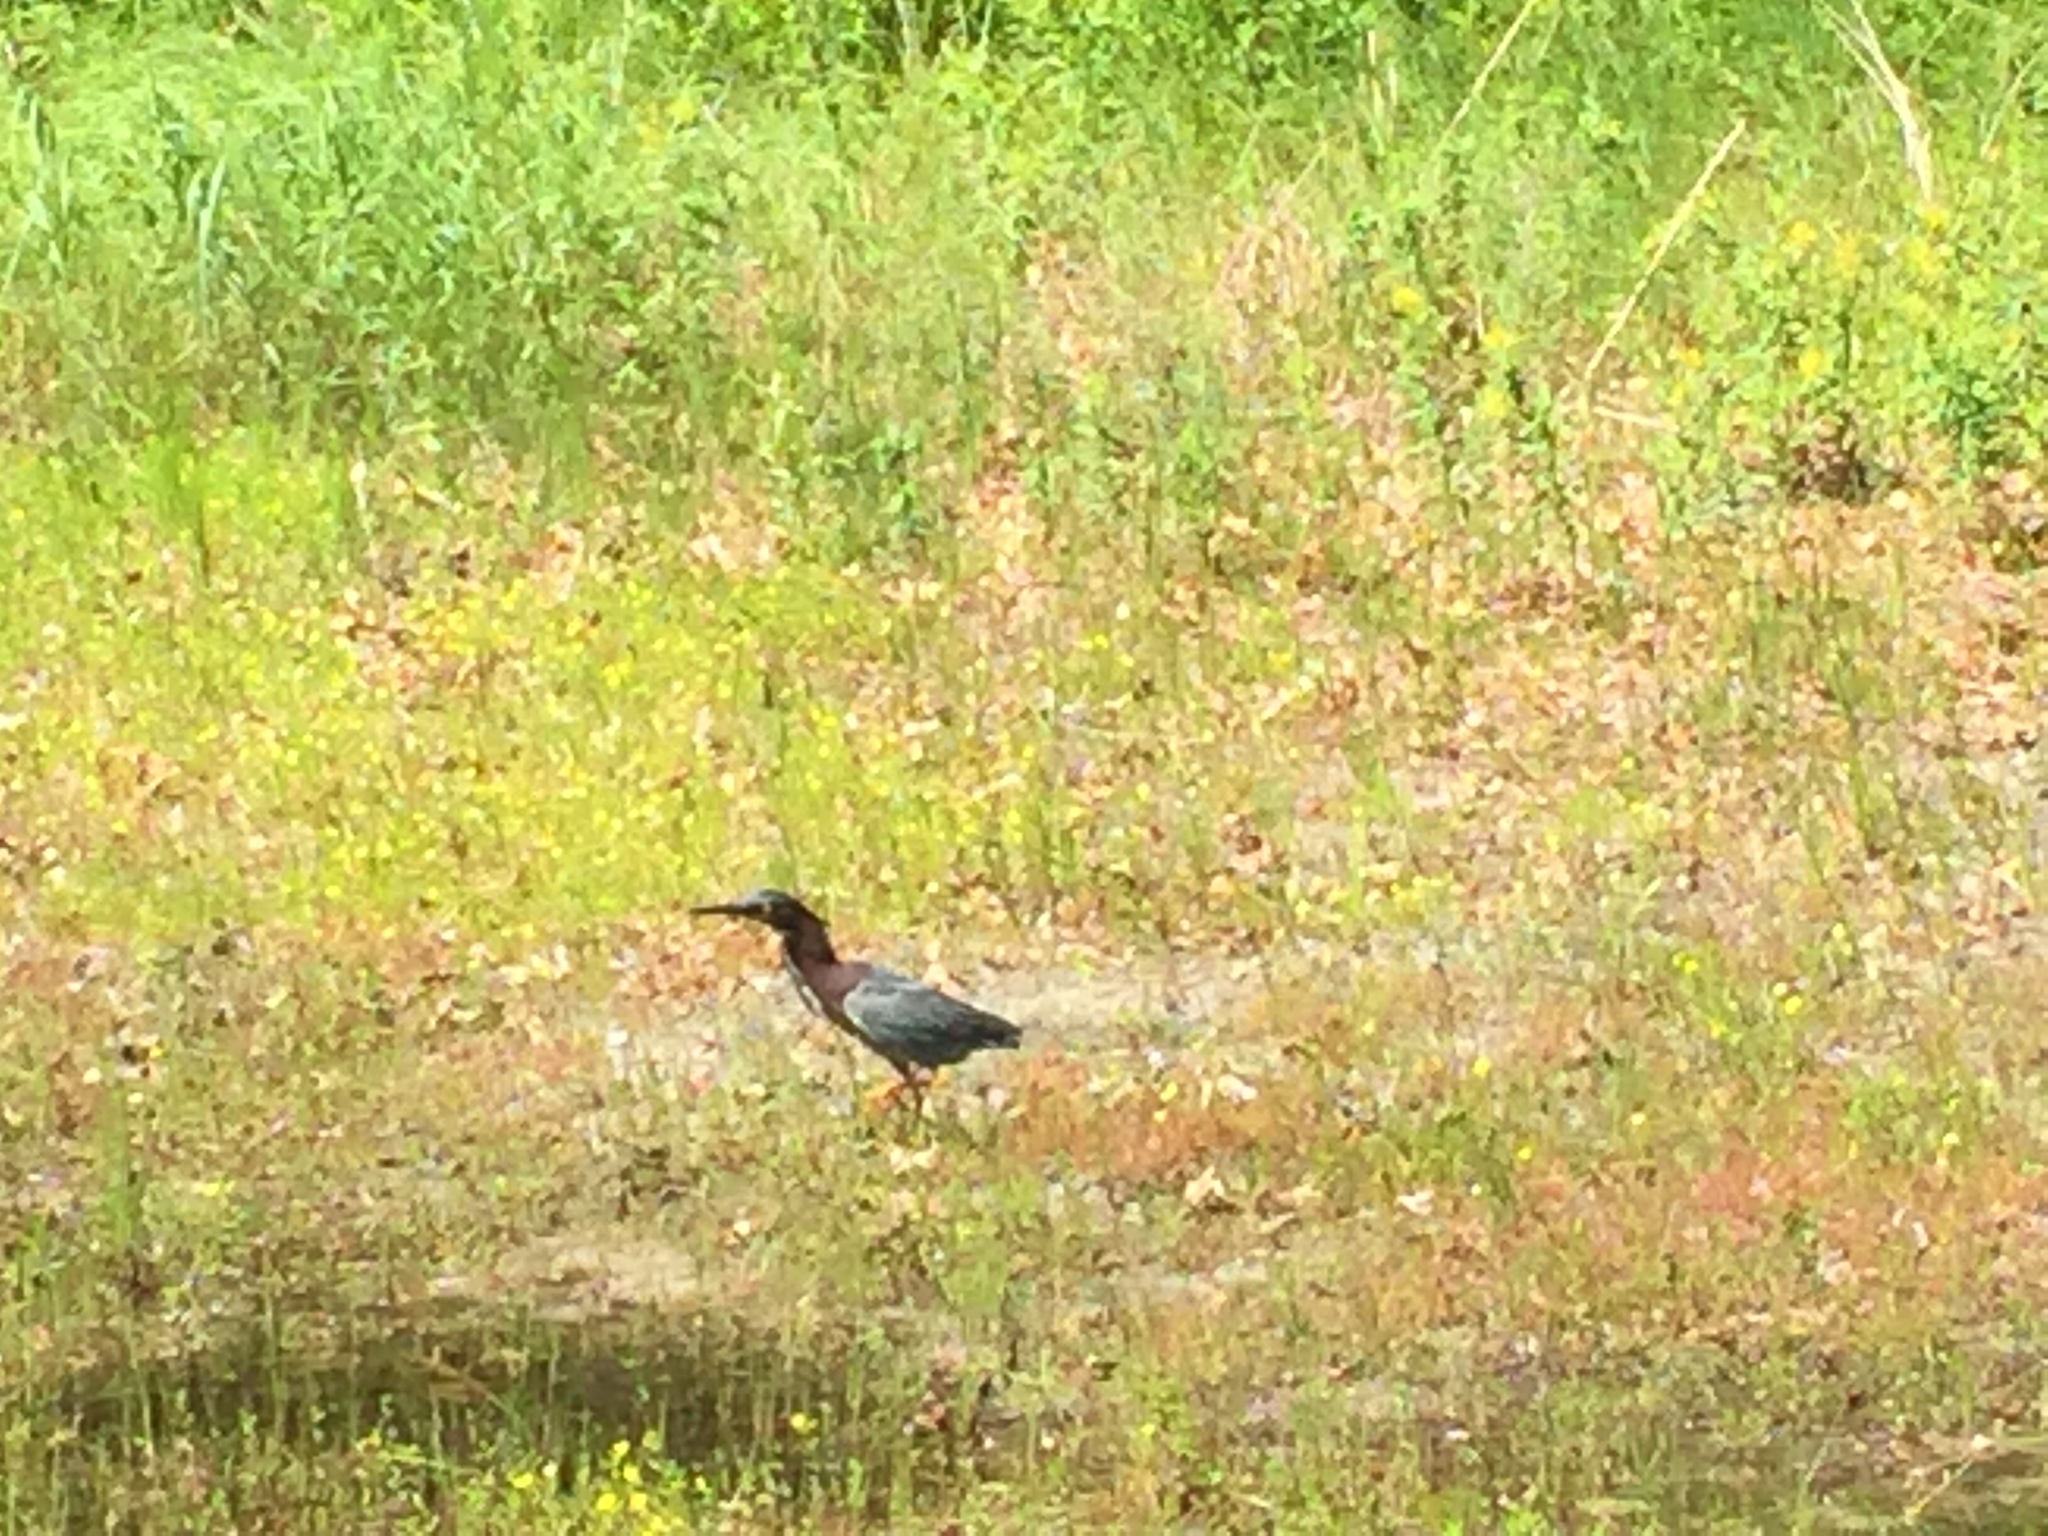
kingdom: Animalia
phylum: Chordata
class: Aves
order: Pelecaniformes
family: Ardeidae
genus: Butorides
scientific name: Butorides virescens
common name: Green heron
